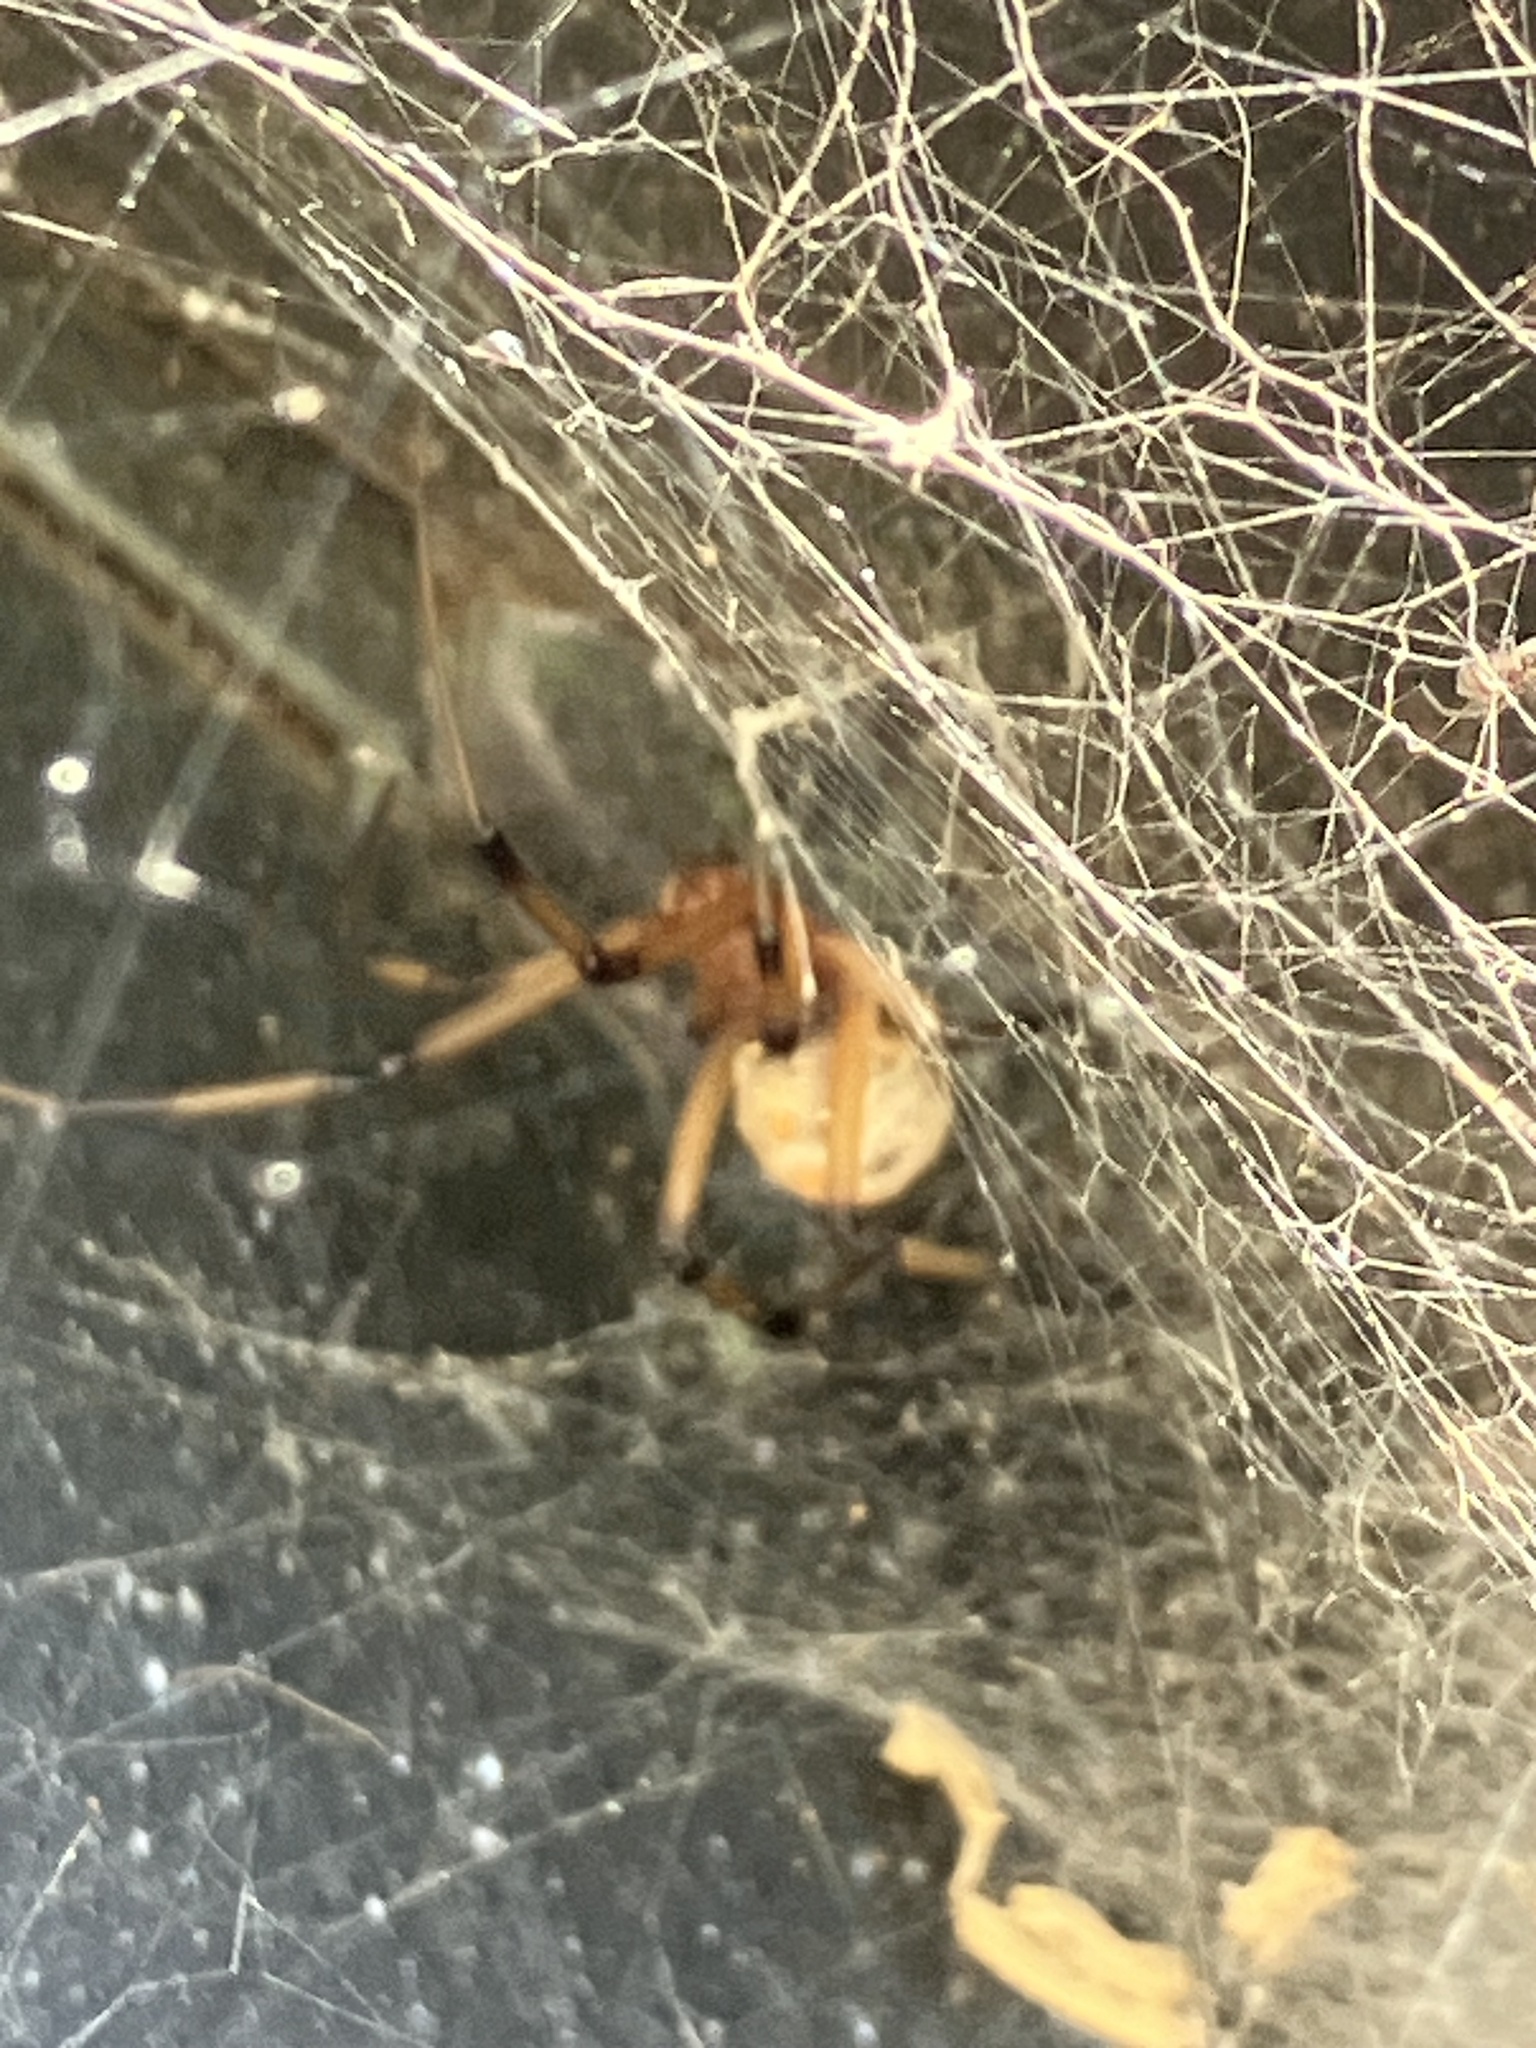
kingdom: Animalia
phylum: Arthropoda
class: Arachnida
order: Araneae
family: Theridiidae
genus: Latrodectus
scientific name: Latrodectus geometricus
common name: Brown widow spider
